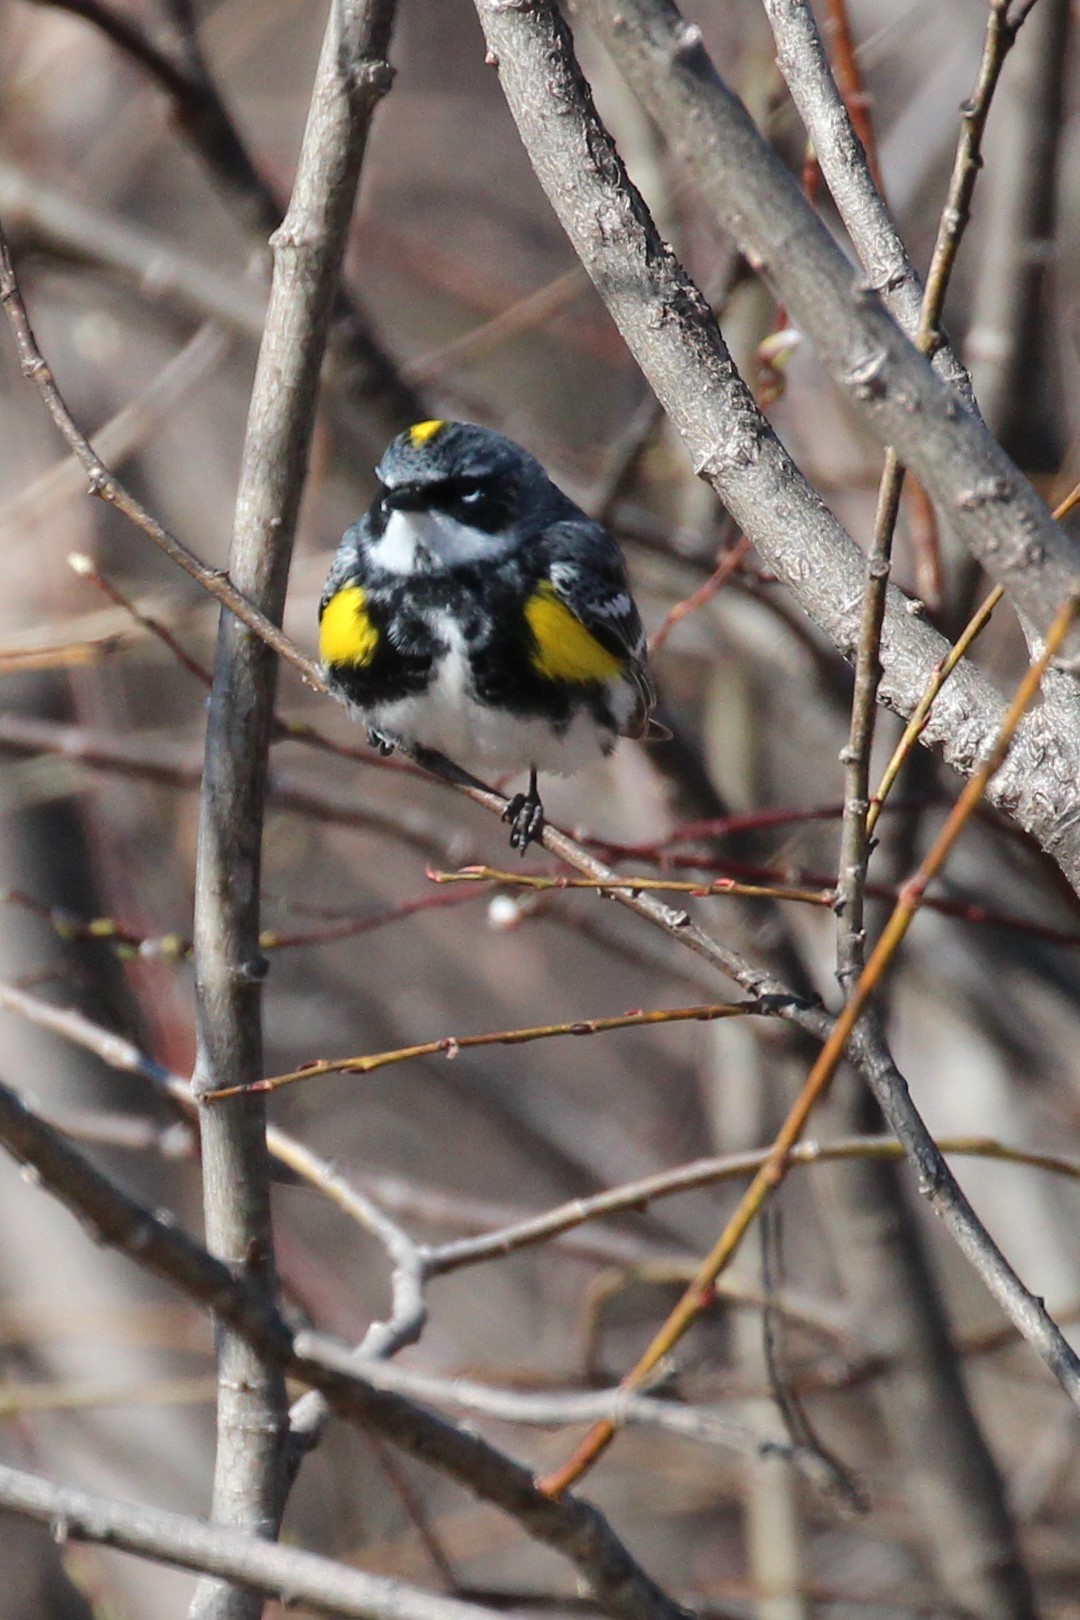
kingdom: Animalia
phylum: Chordata
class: Aves
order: Passeriformes
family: Parulidae
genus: Setophaga
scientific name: Setophaga coronata
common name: Myrtle warbler
